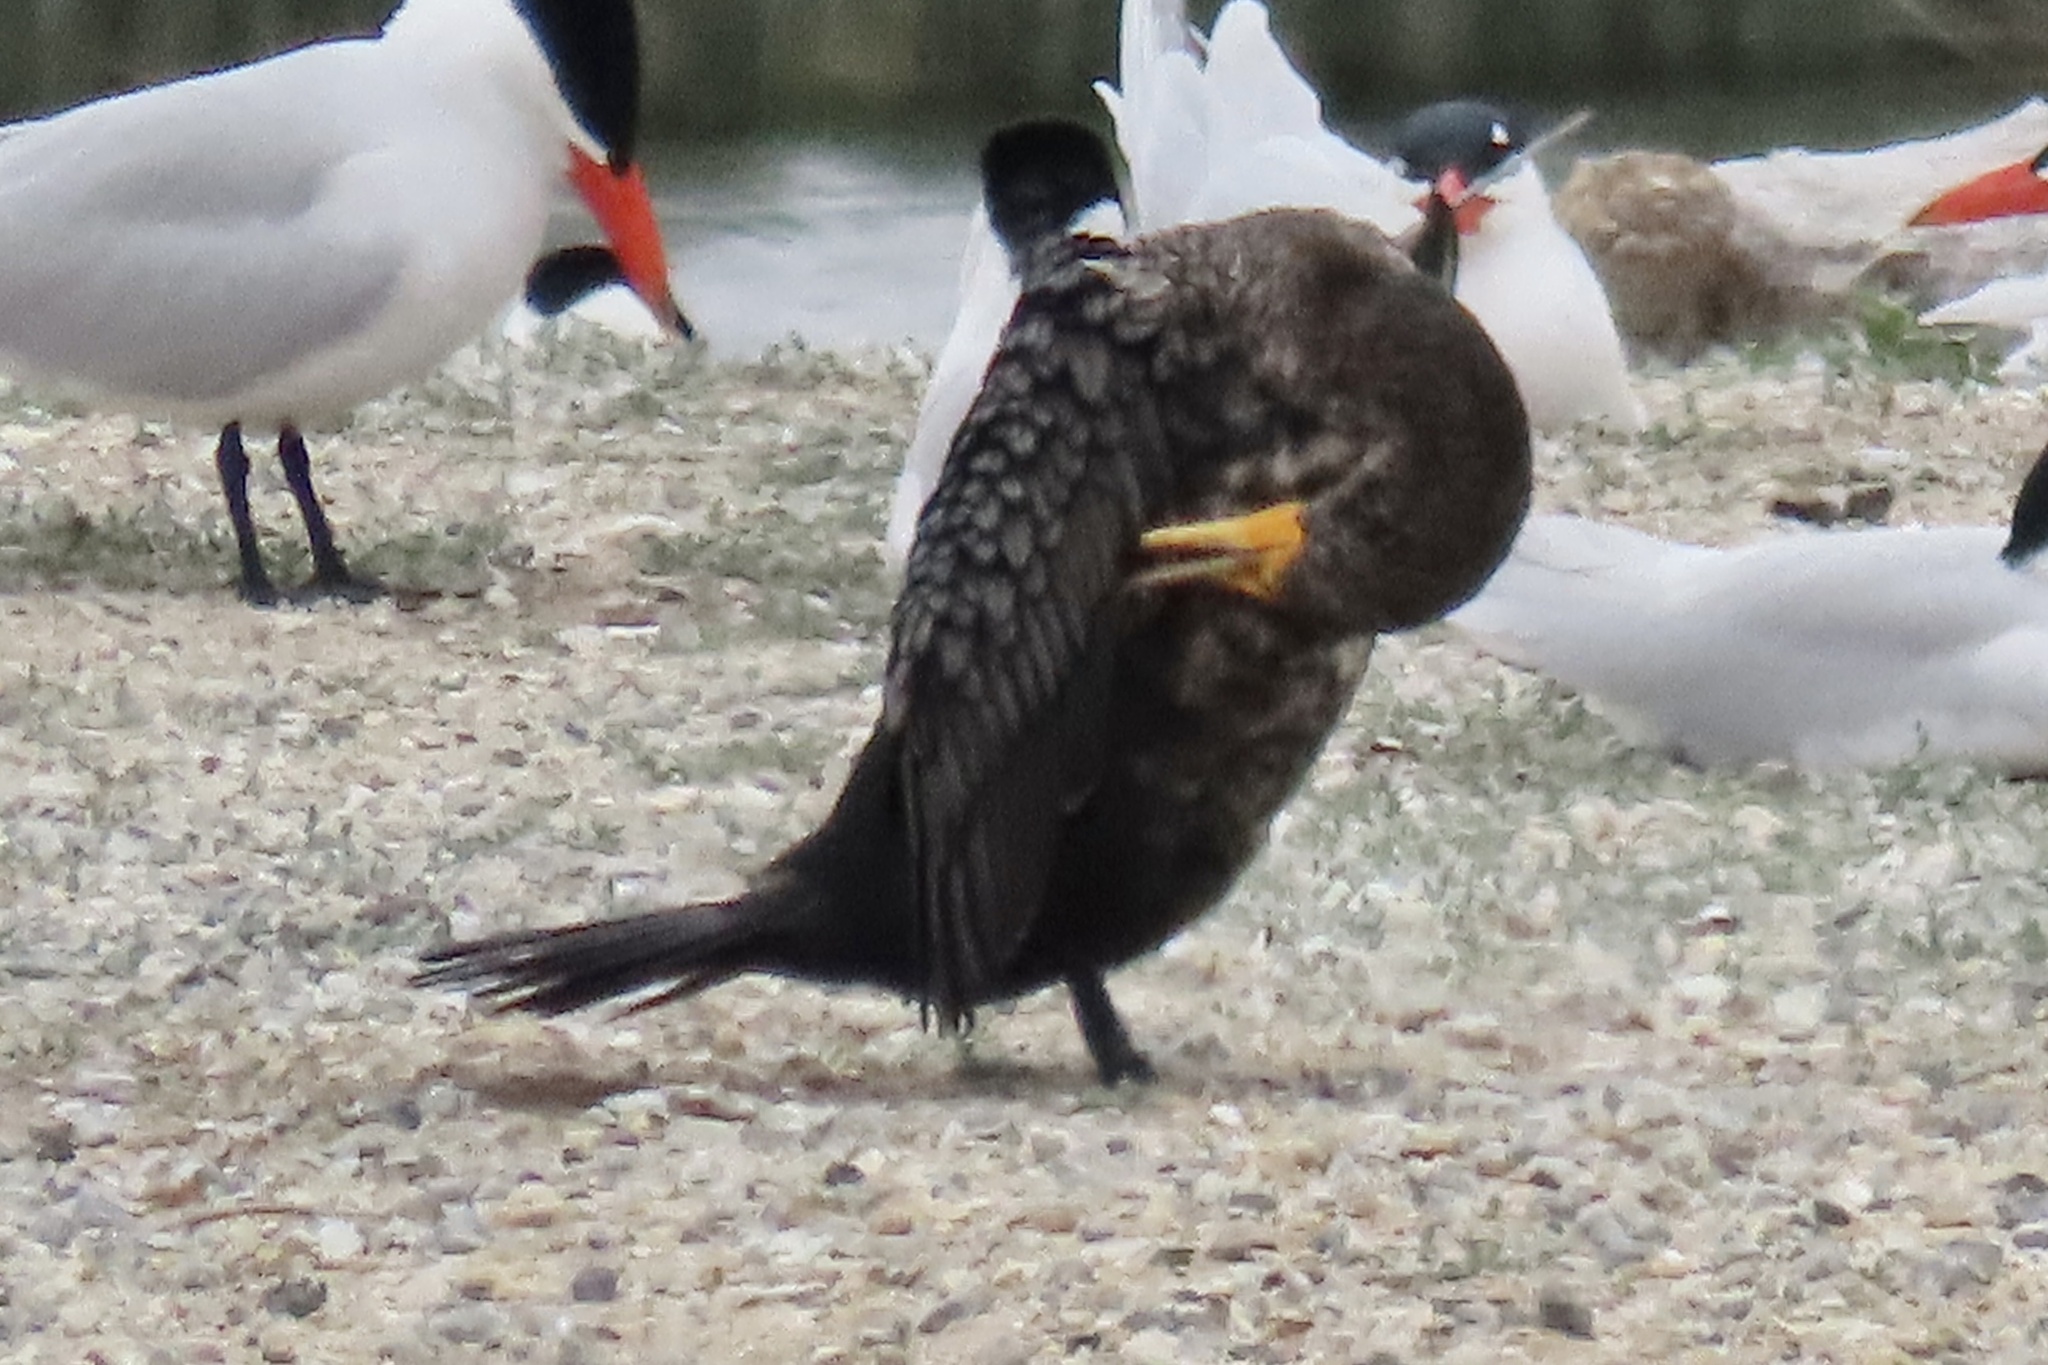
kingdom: Animalia
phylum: Chordata
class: Aves
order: Suliformes
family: Phalacrocoracidae
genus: Phalacrocorax
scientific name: Phalacrocorax auritus
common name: Double-crested cormorant
